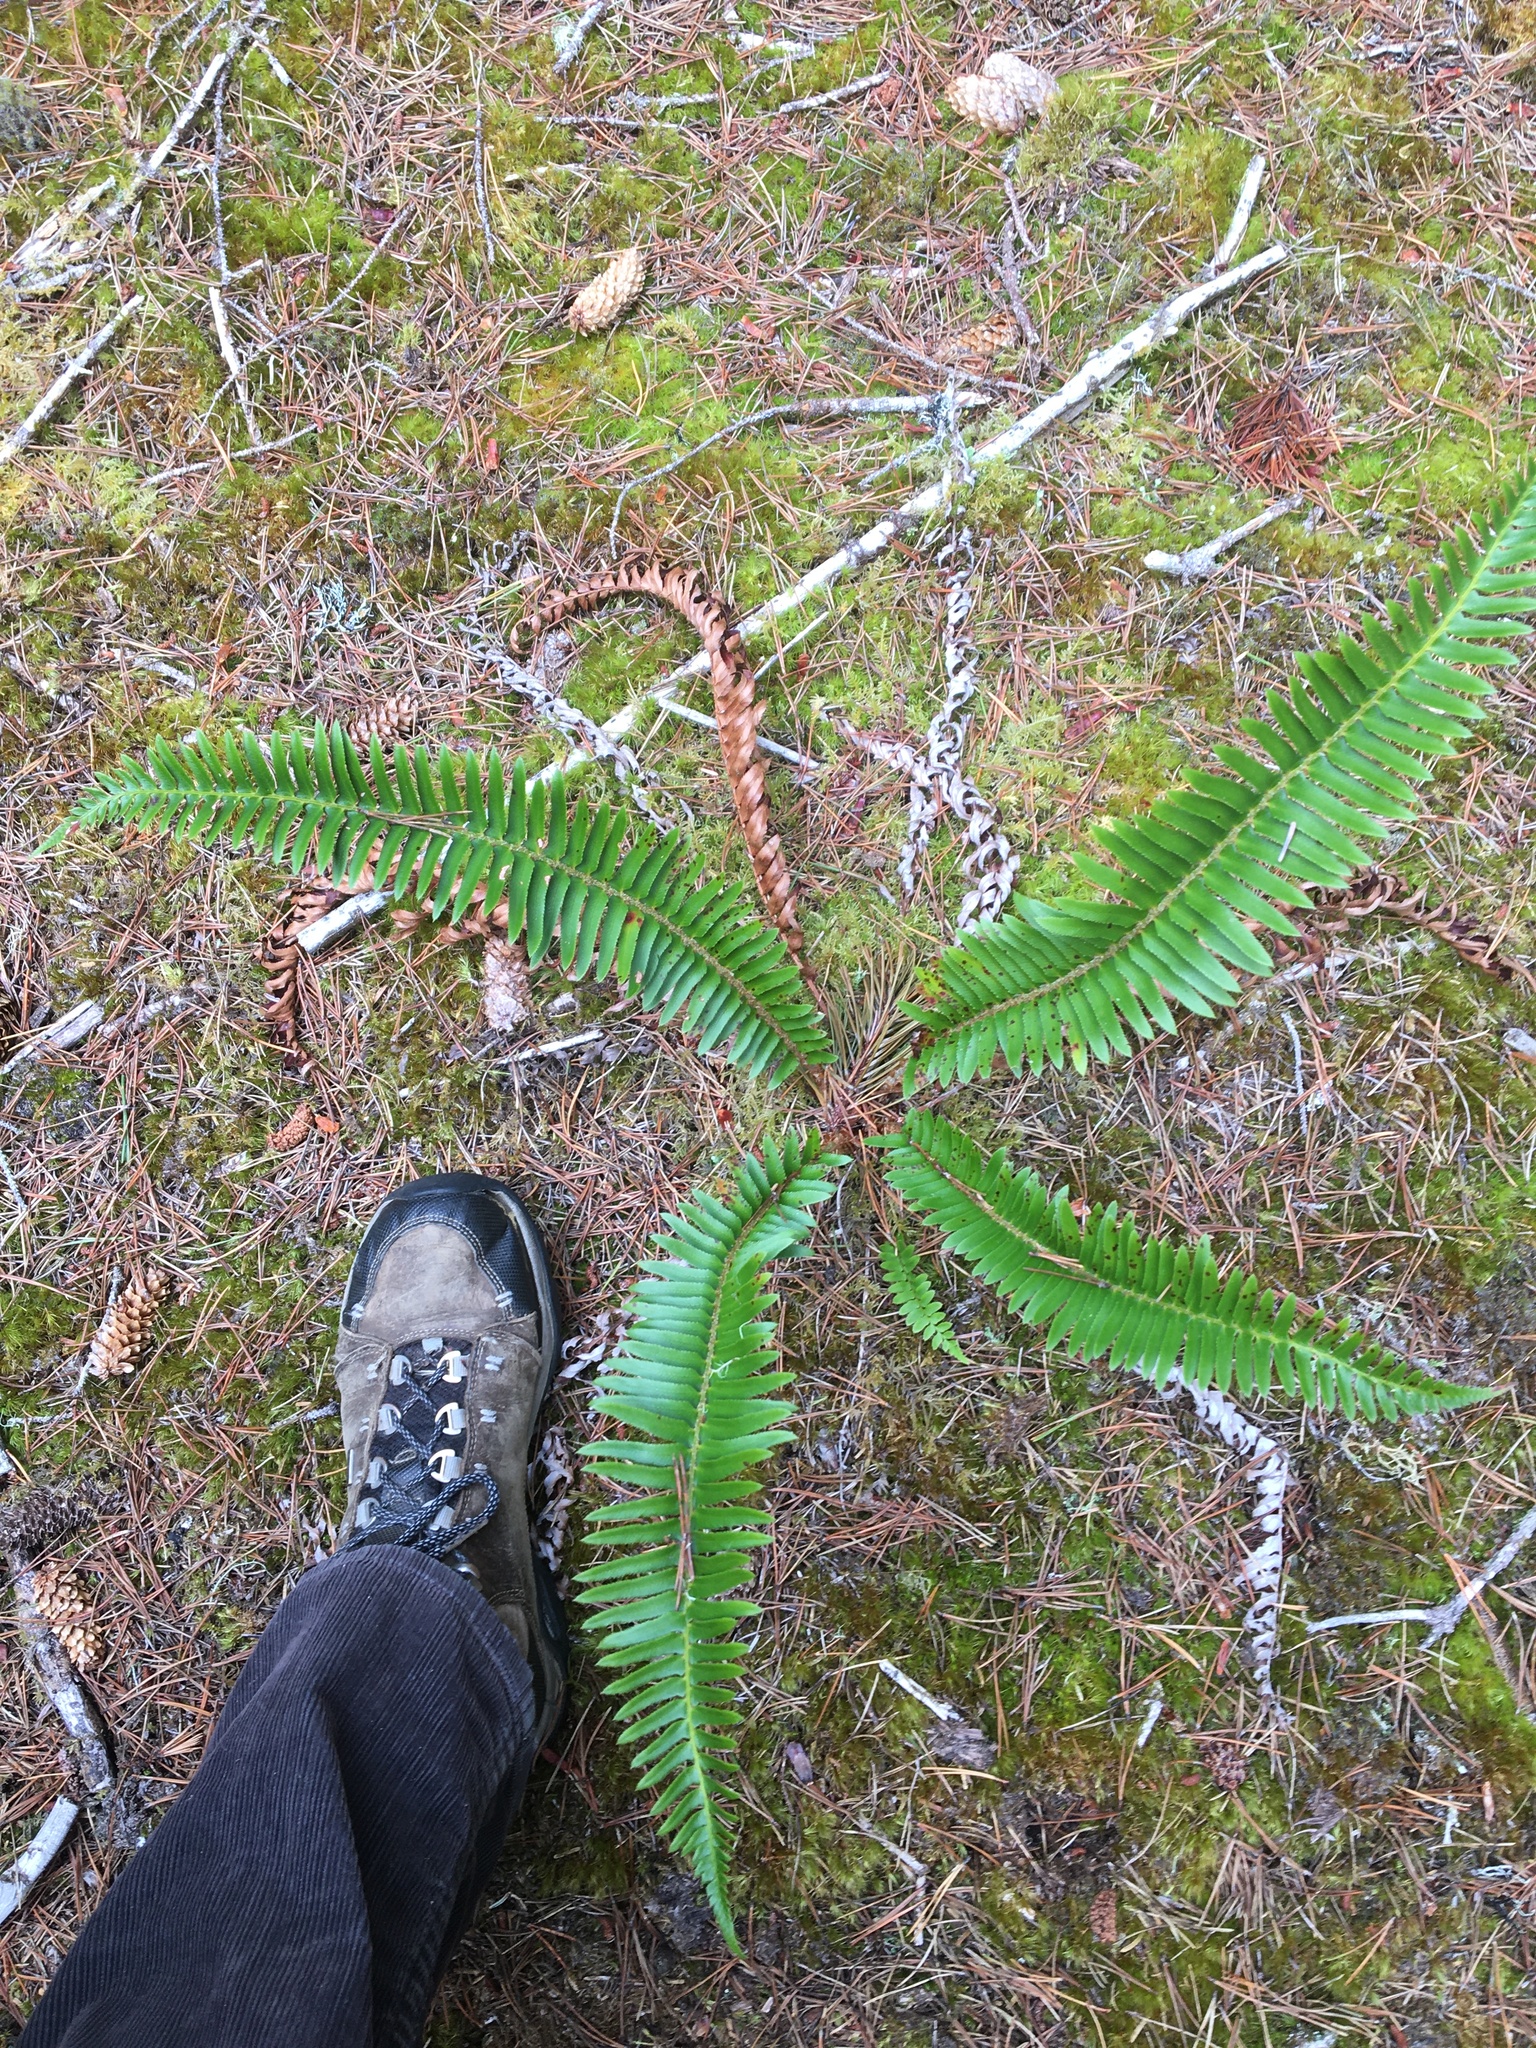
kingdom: Plantae
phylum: Tracheophyta
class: Polypodiopsida
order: Polypodiales
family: Dryopteridaceae
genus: Polystichum
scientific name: Polystichum munitum
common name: Western sword-fern
